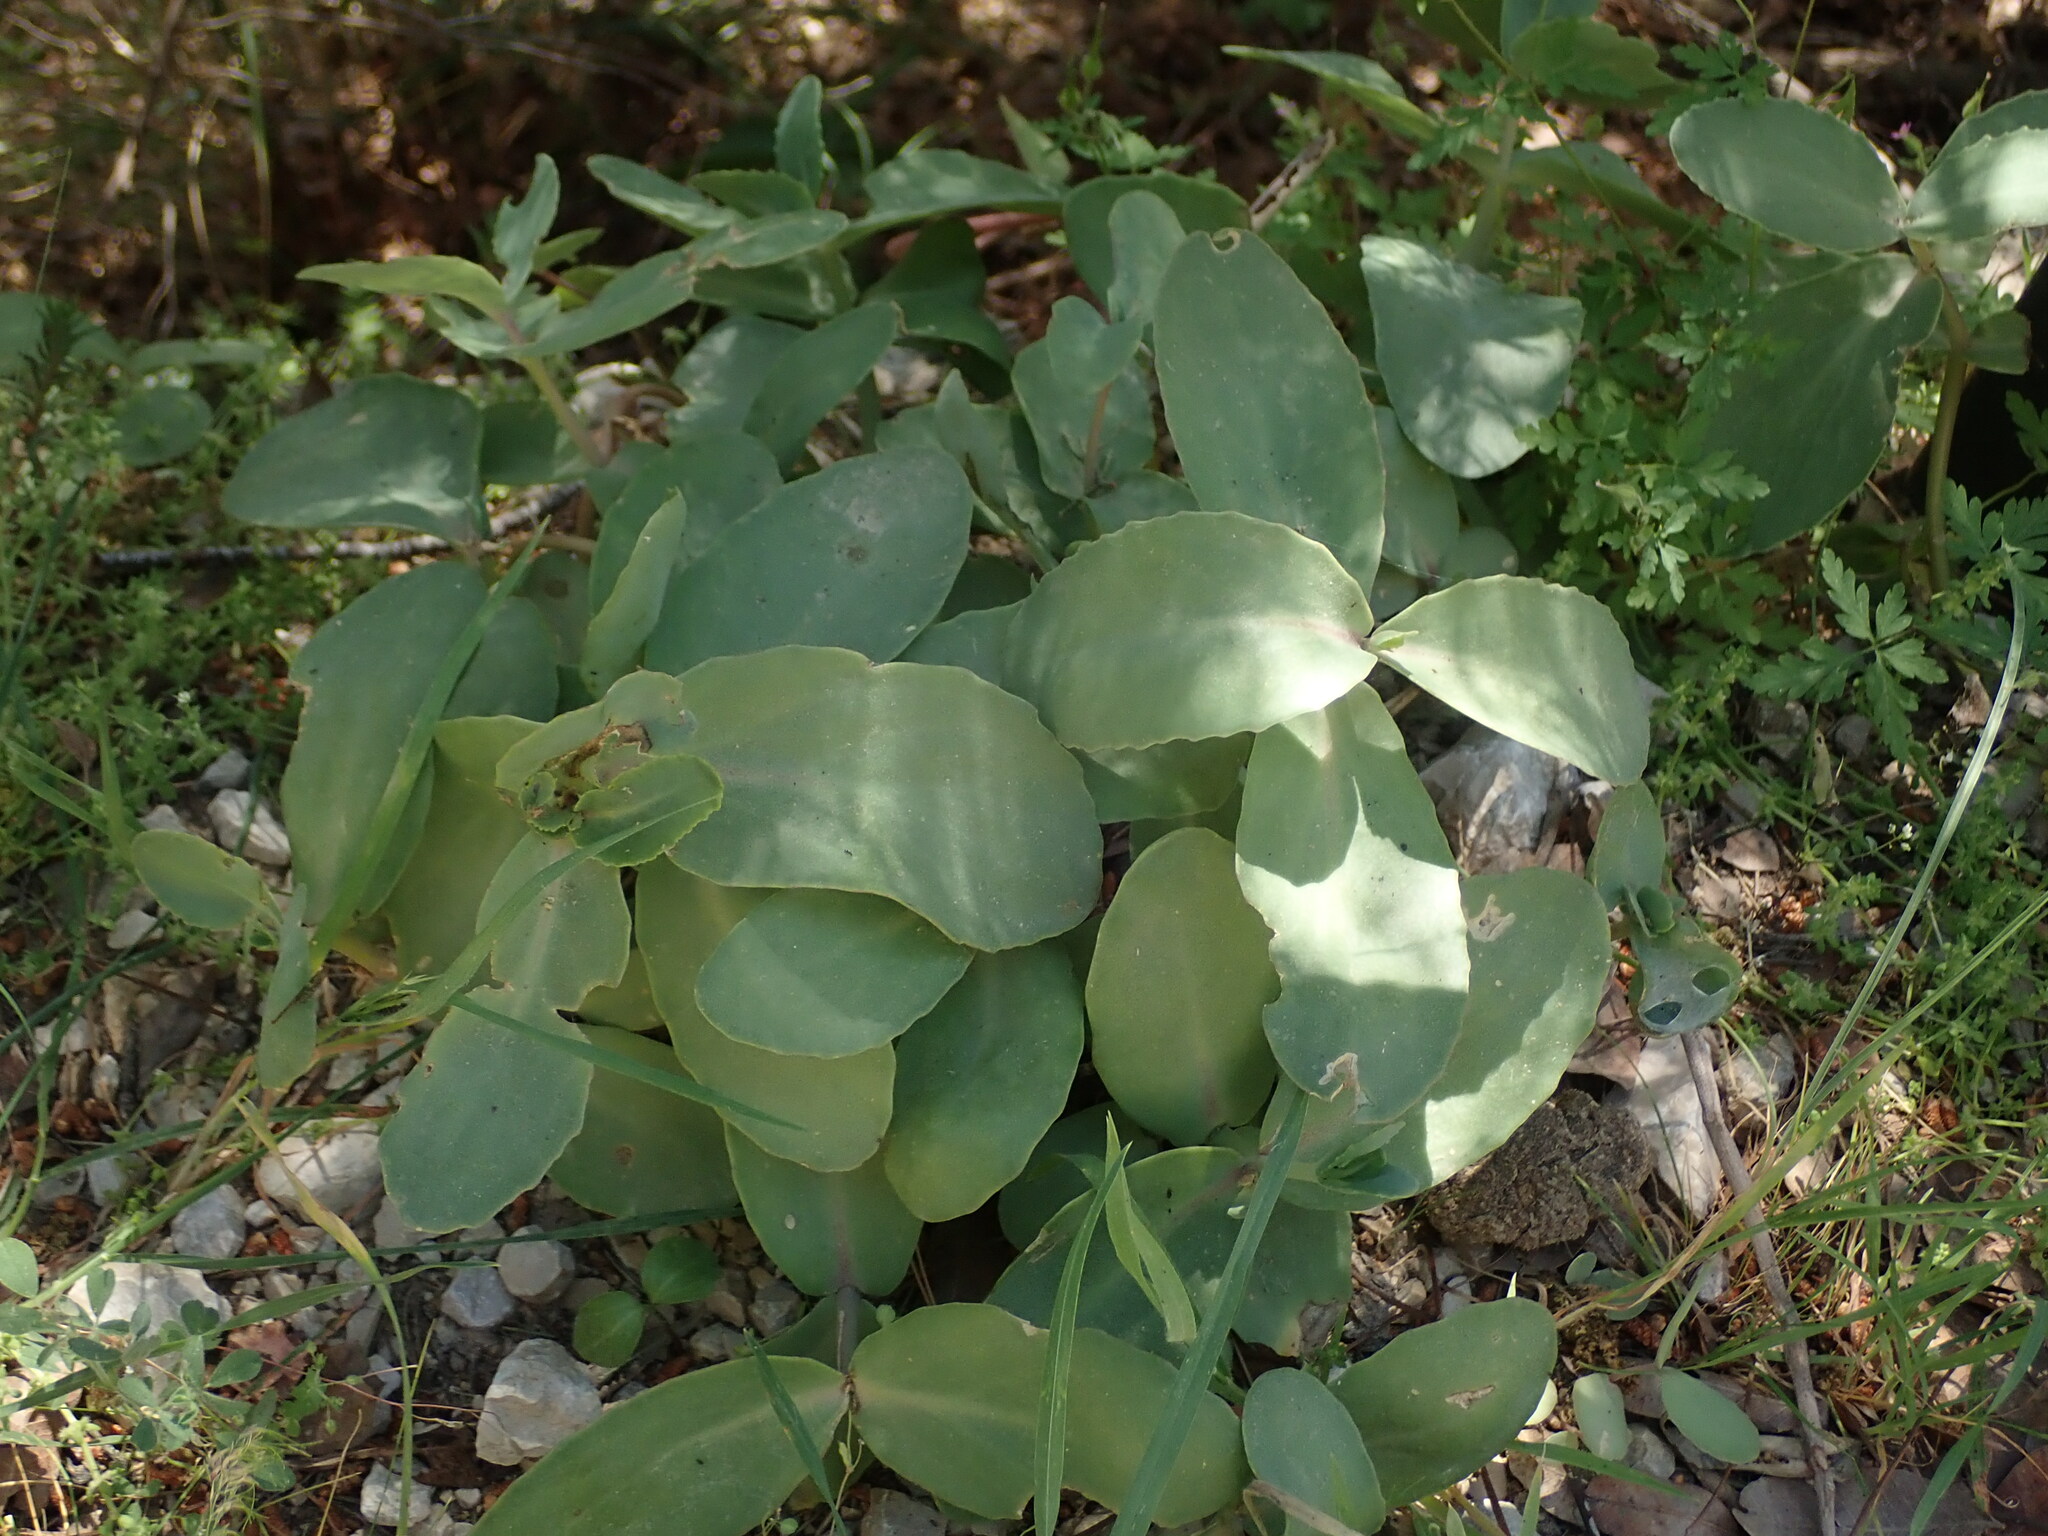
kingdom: Plantae
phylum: Tracheophyta
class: Magnoliopsida
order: Saxifragales
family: Crassulaceae
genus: Hylotelephium
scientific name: Hylotelephium maximum
